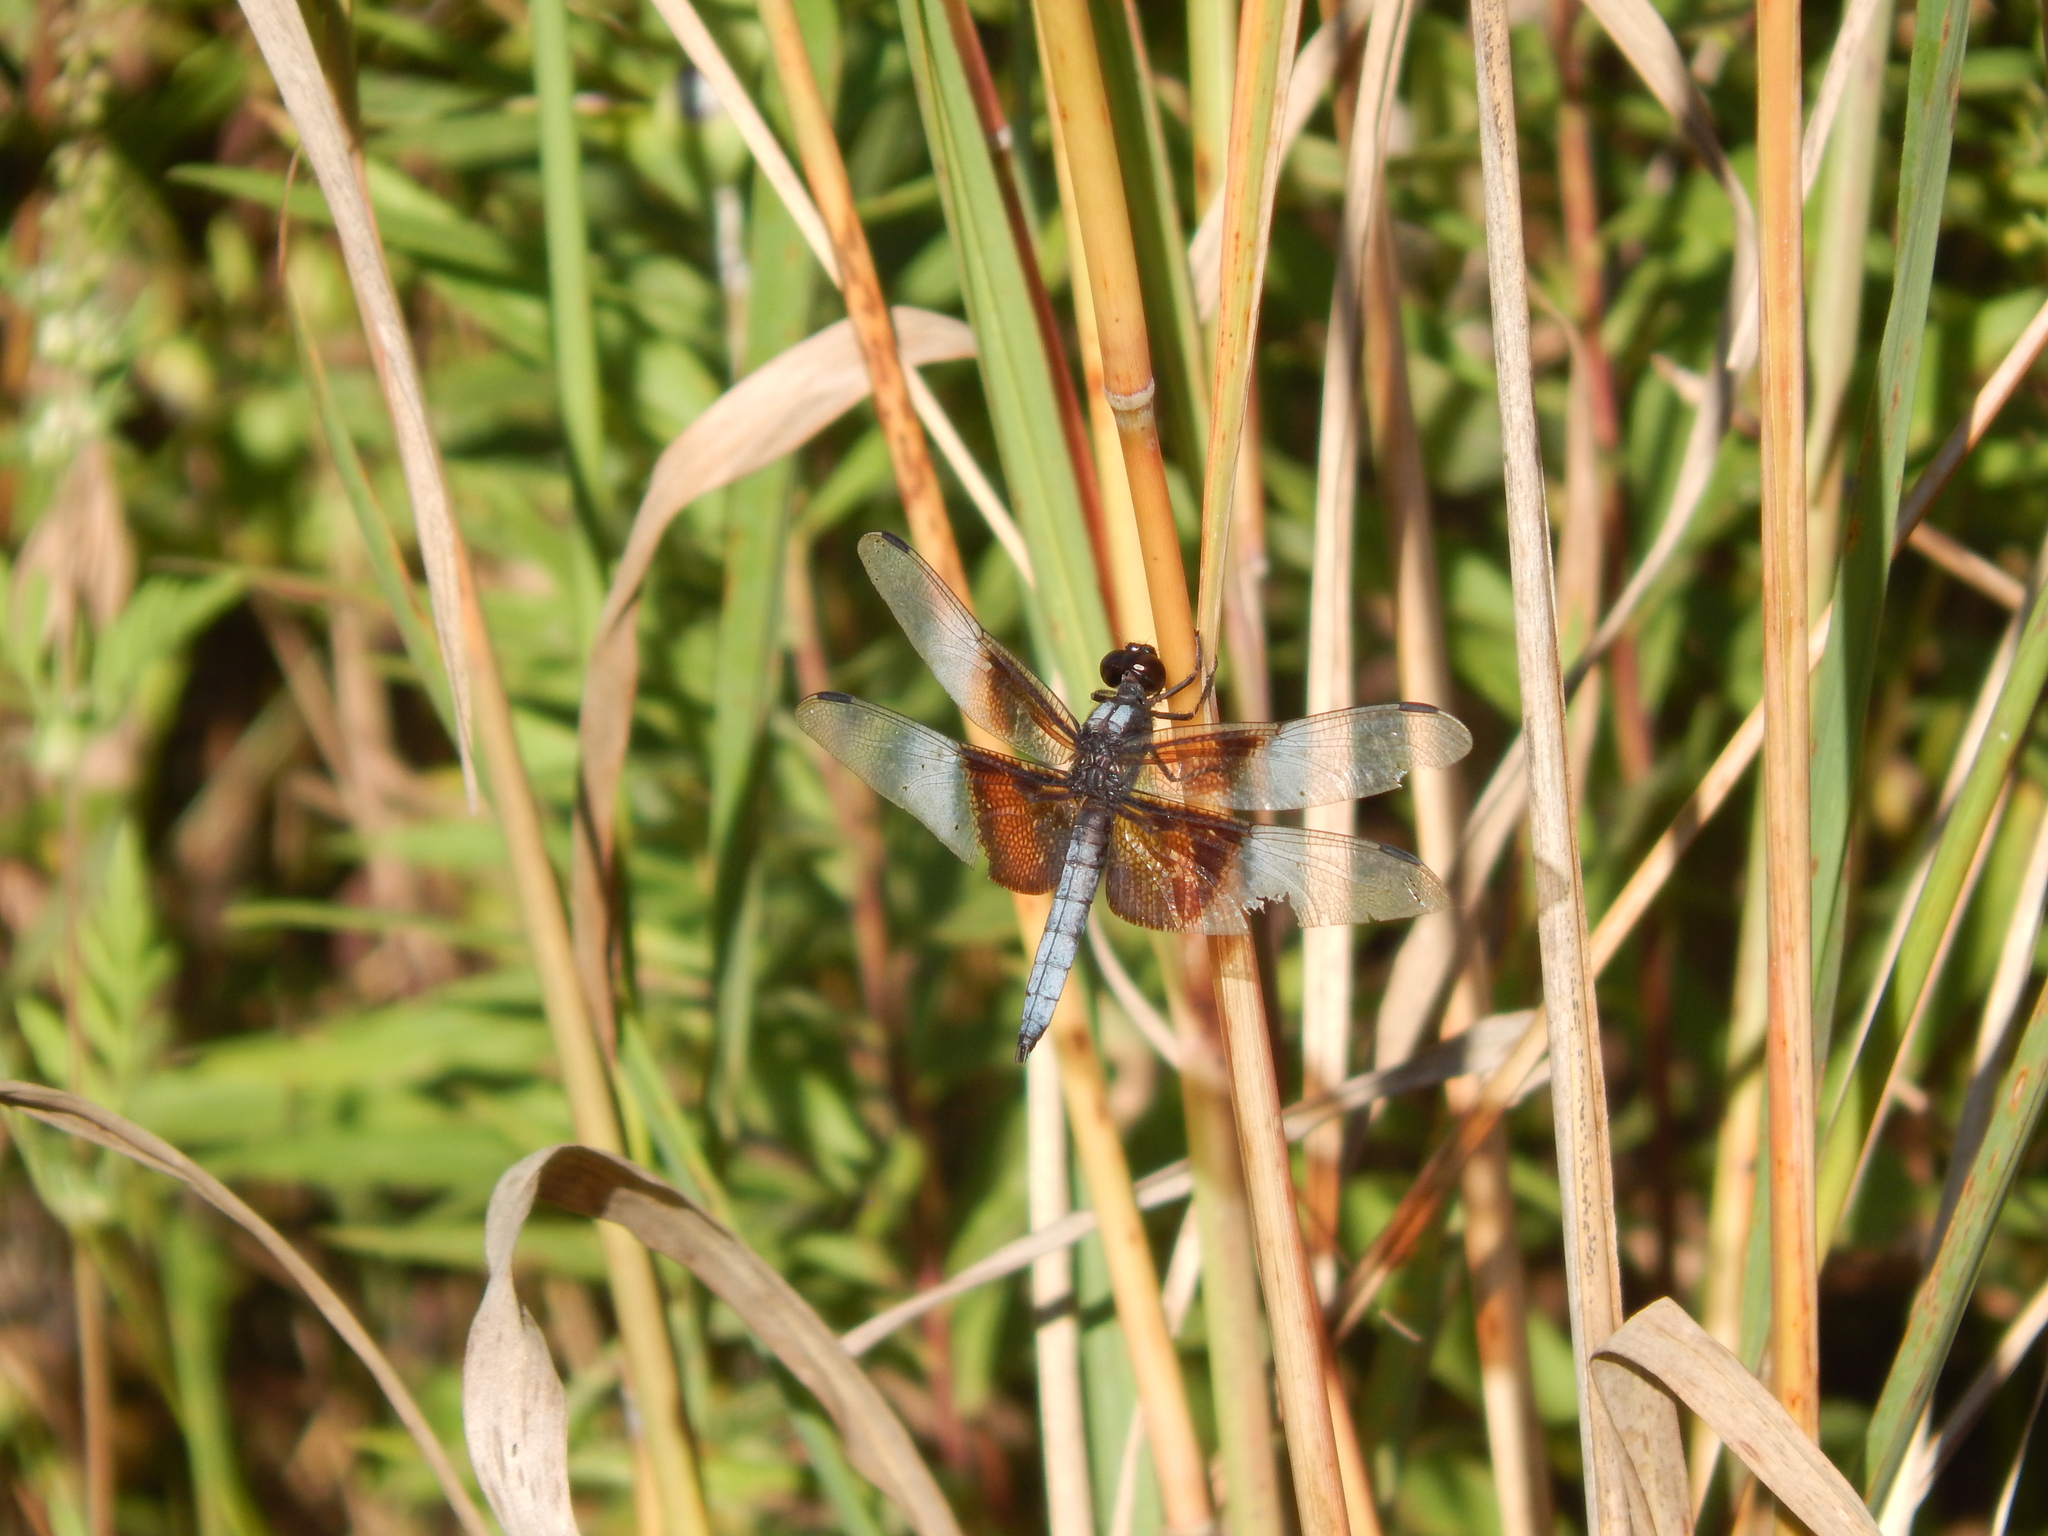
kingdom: Animalia
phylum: Arthropoda
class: Insecta
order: Odonata
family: Libellulidae
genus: Libellula
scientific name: Libellula luctuosa
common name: Widow skimmer
